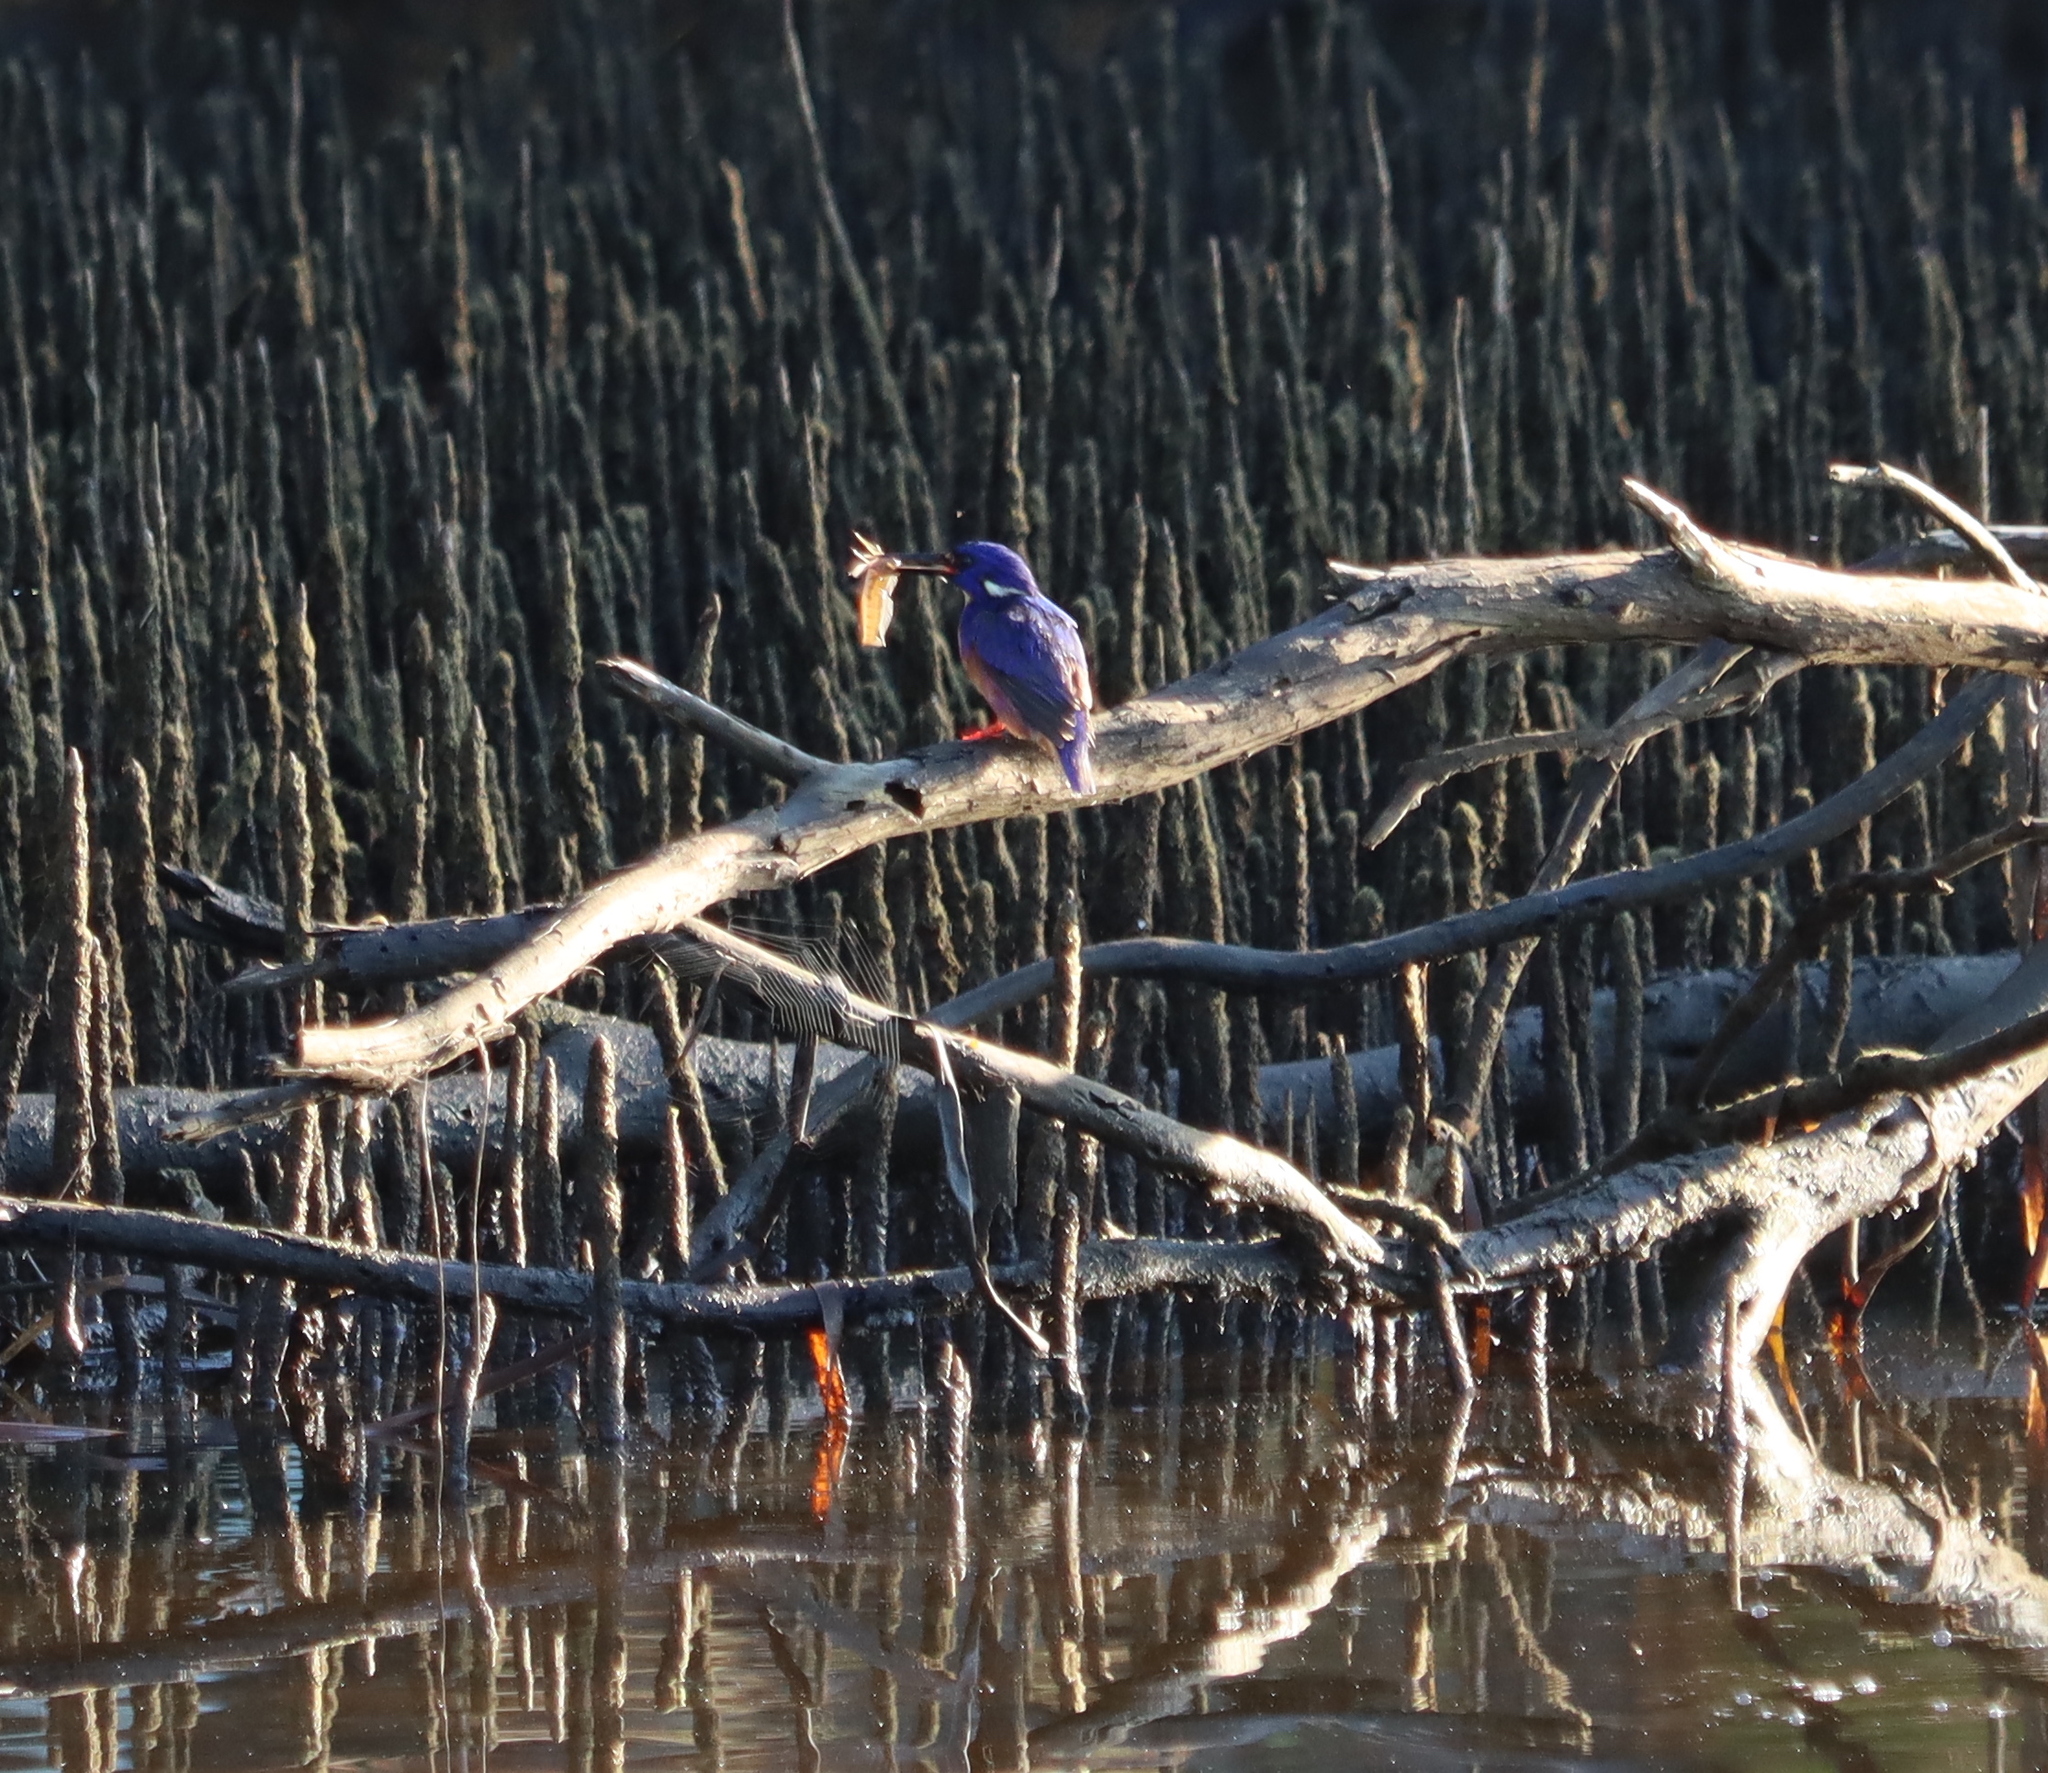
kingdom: Animalia
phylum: Chordata
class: Aves
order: Coraciiformes
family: Alcedinidae
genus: Ceyx
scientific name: Ceyx azureus
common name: Azure kingfisher
